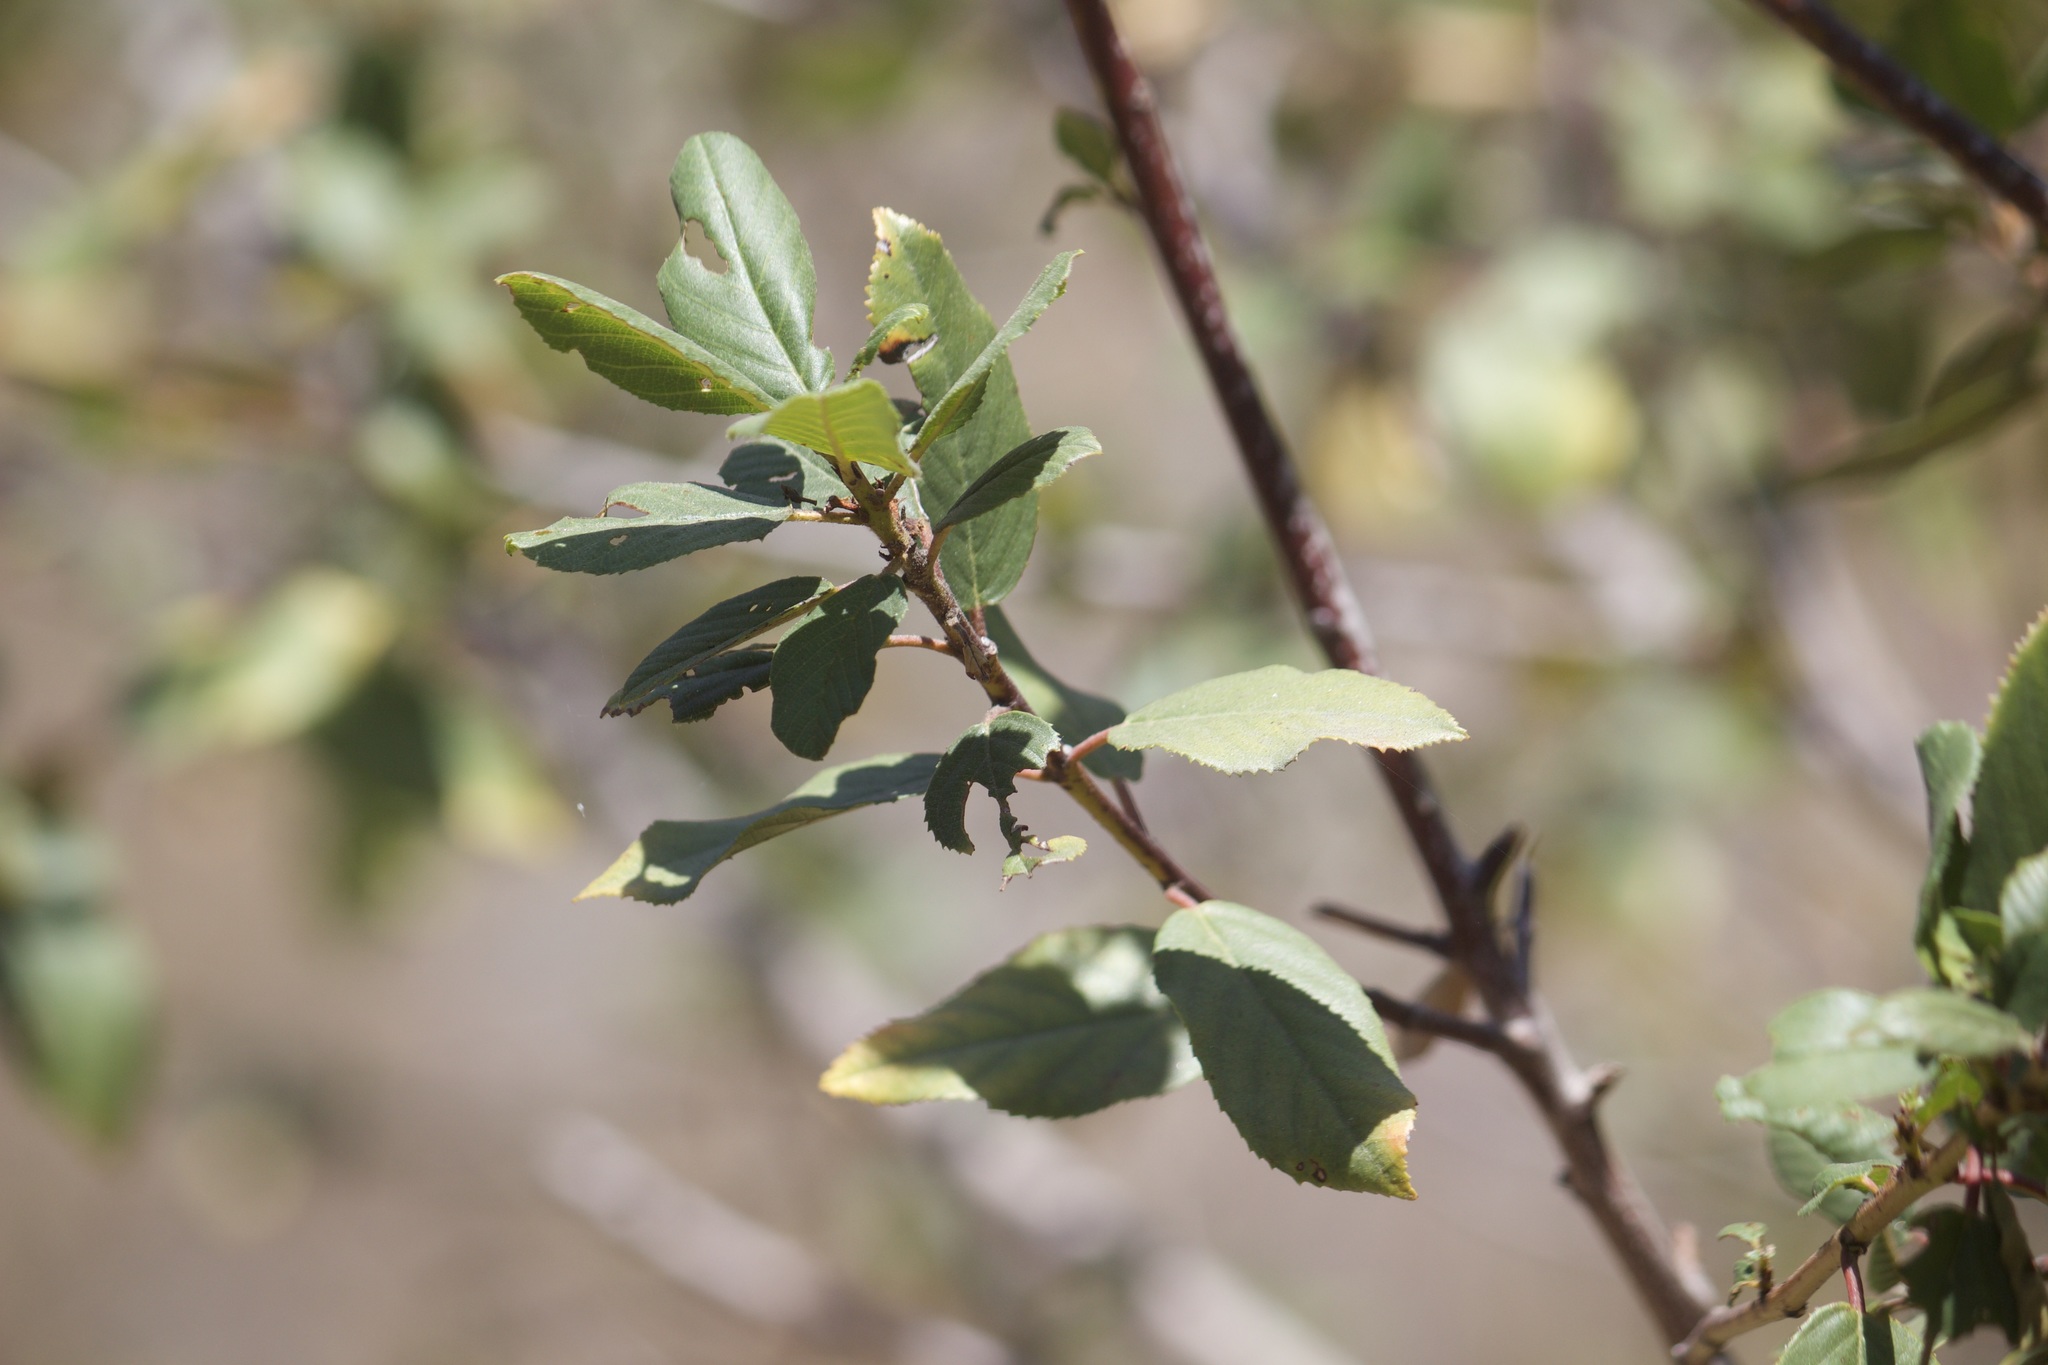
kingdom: Plantae
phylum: Tracheophyta
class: Magnoliopsida
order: Rosales
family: Rhamnaceae
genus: Frangula
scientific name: Frangula californica
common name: California buckthorn
